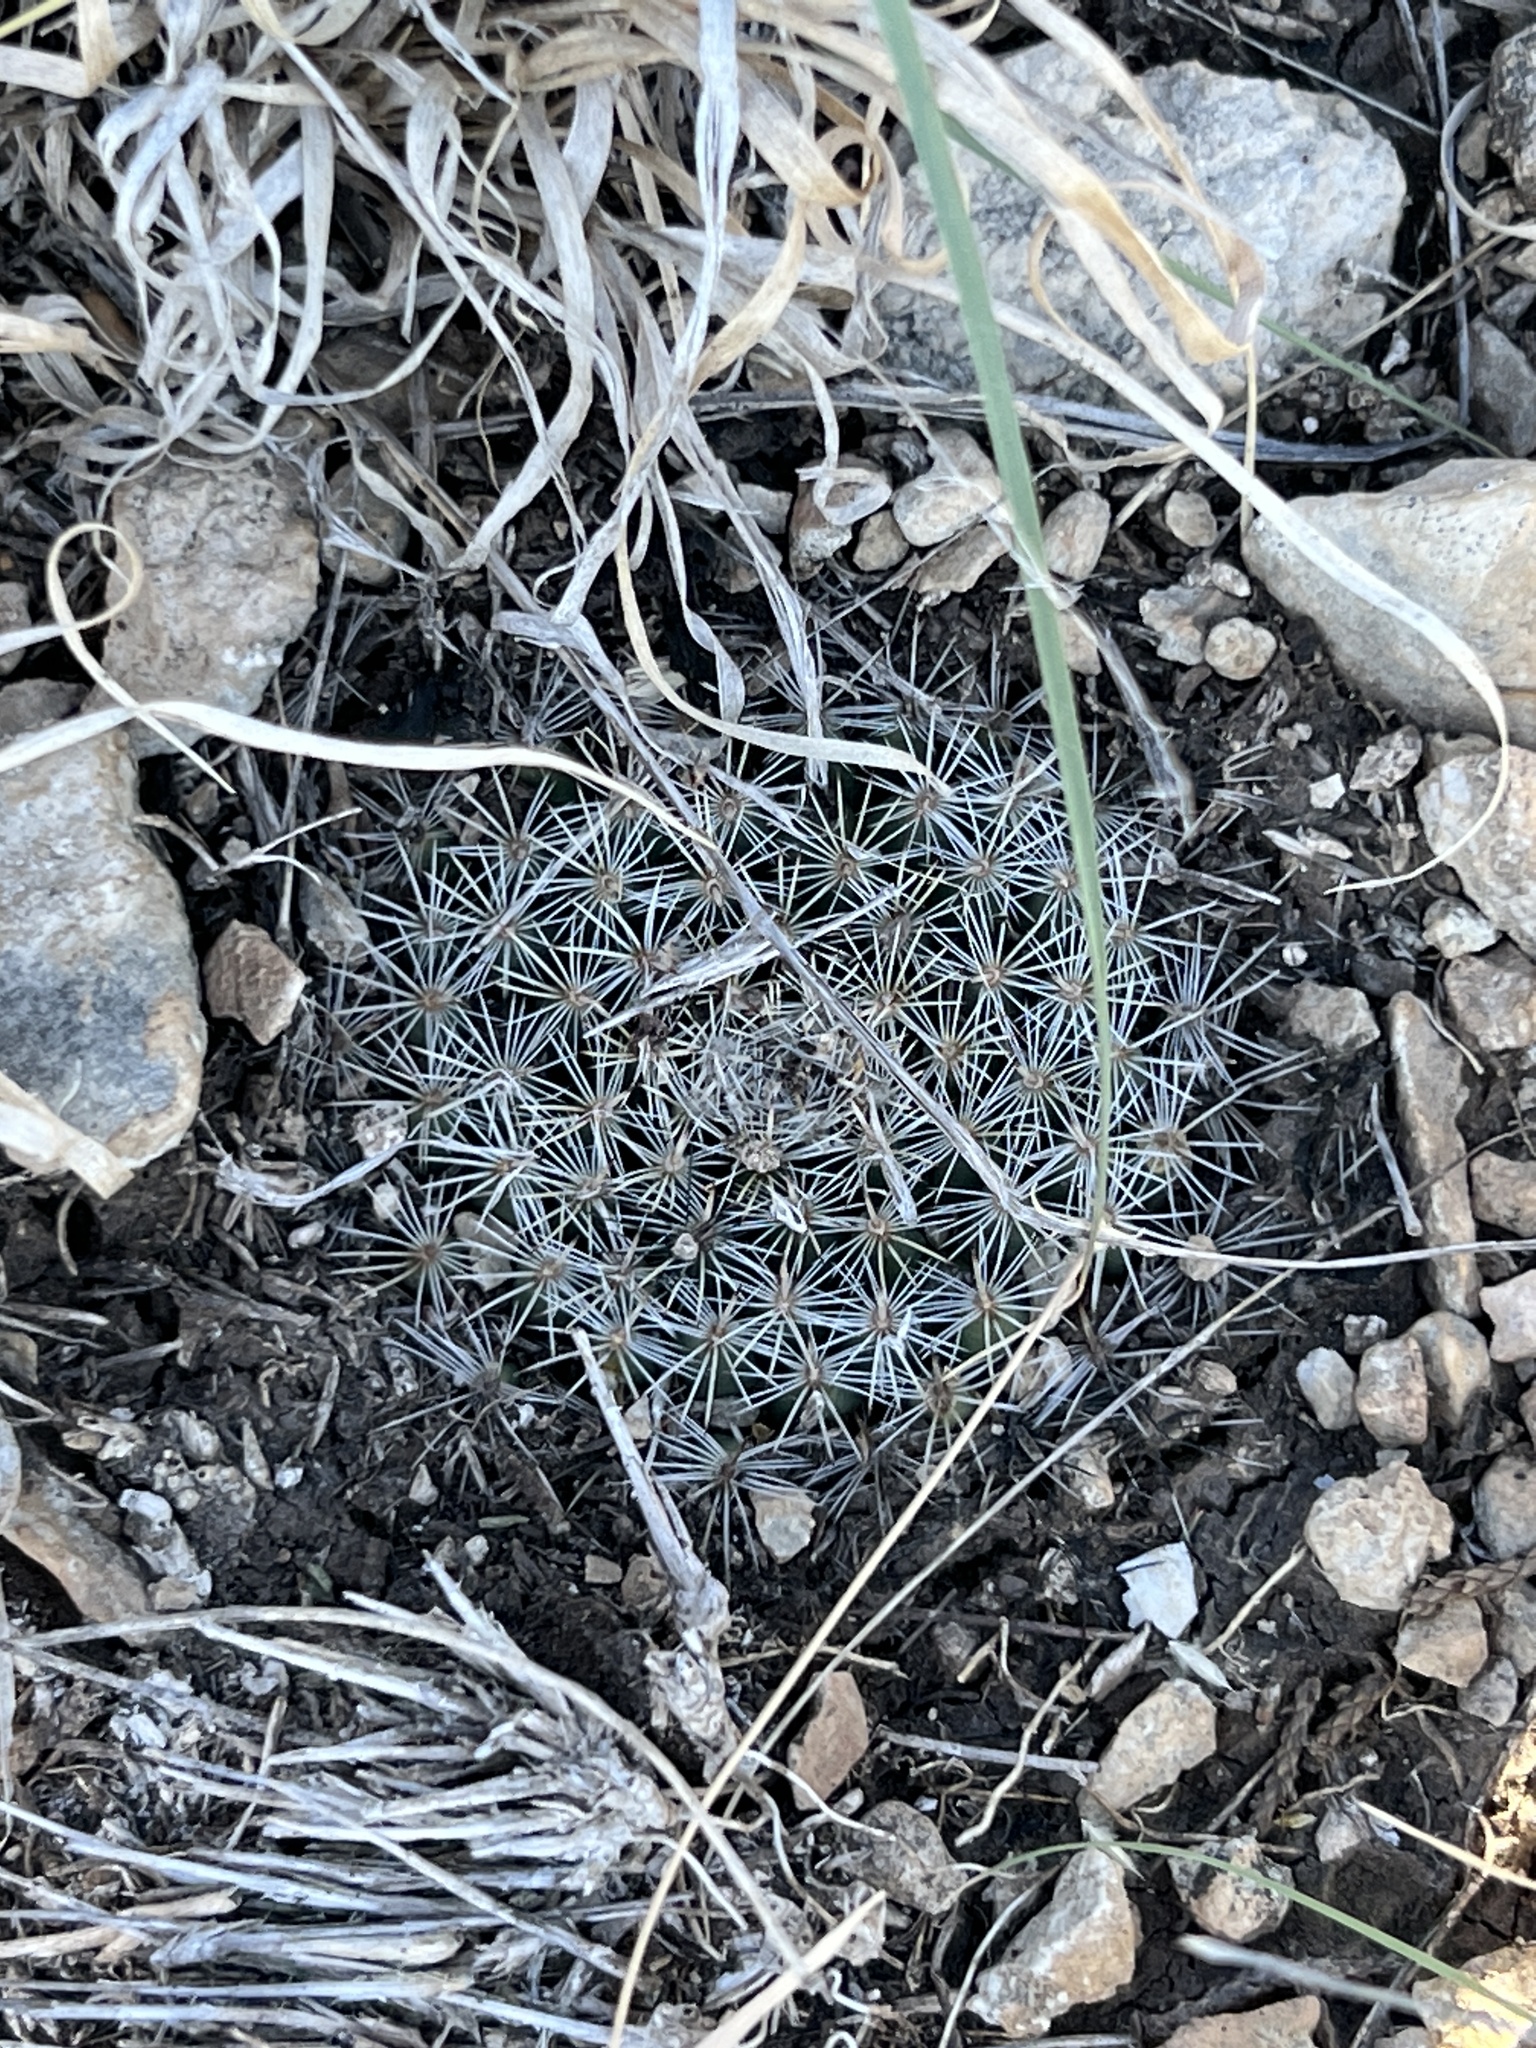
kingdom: Plantae
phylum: Tracheophyta
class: Magnoliopsida
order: Caryophyllales
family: Cactaceae
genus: Mammillaria
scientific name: Mammillaria heyderi
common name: Little nipple cactus
